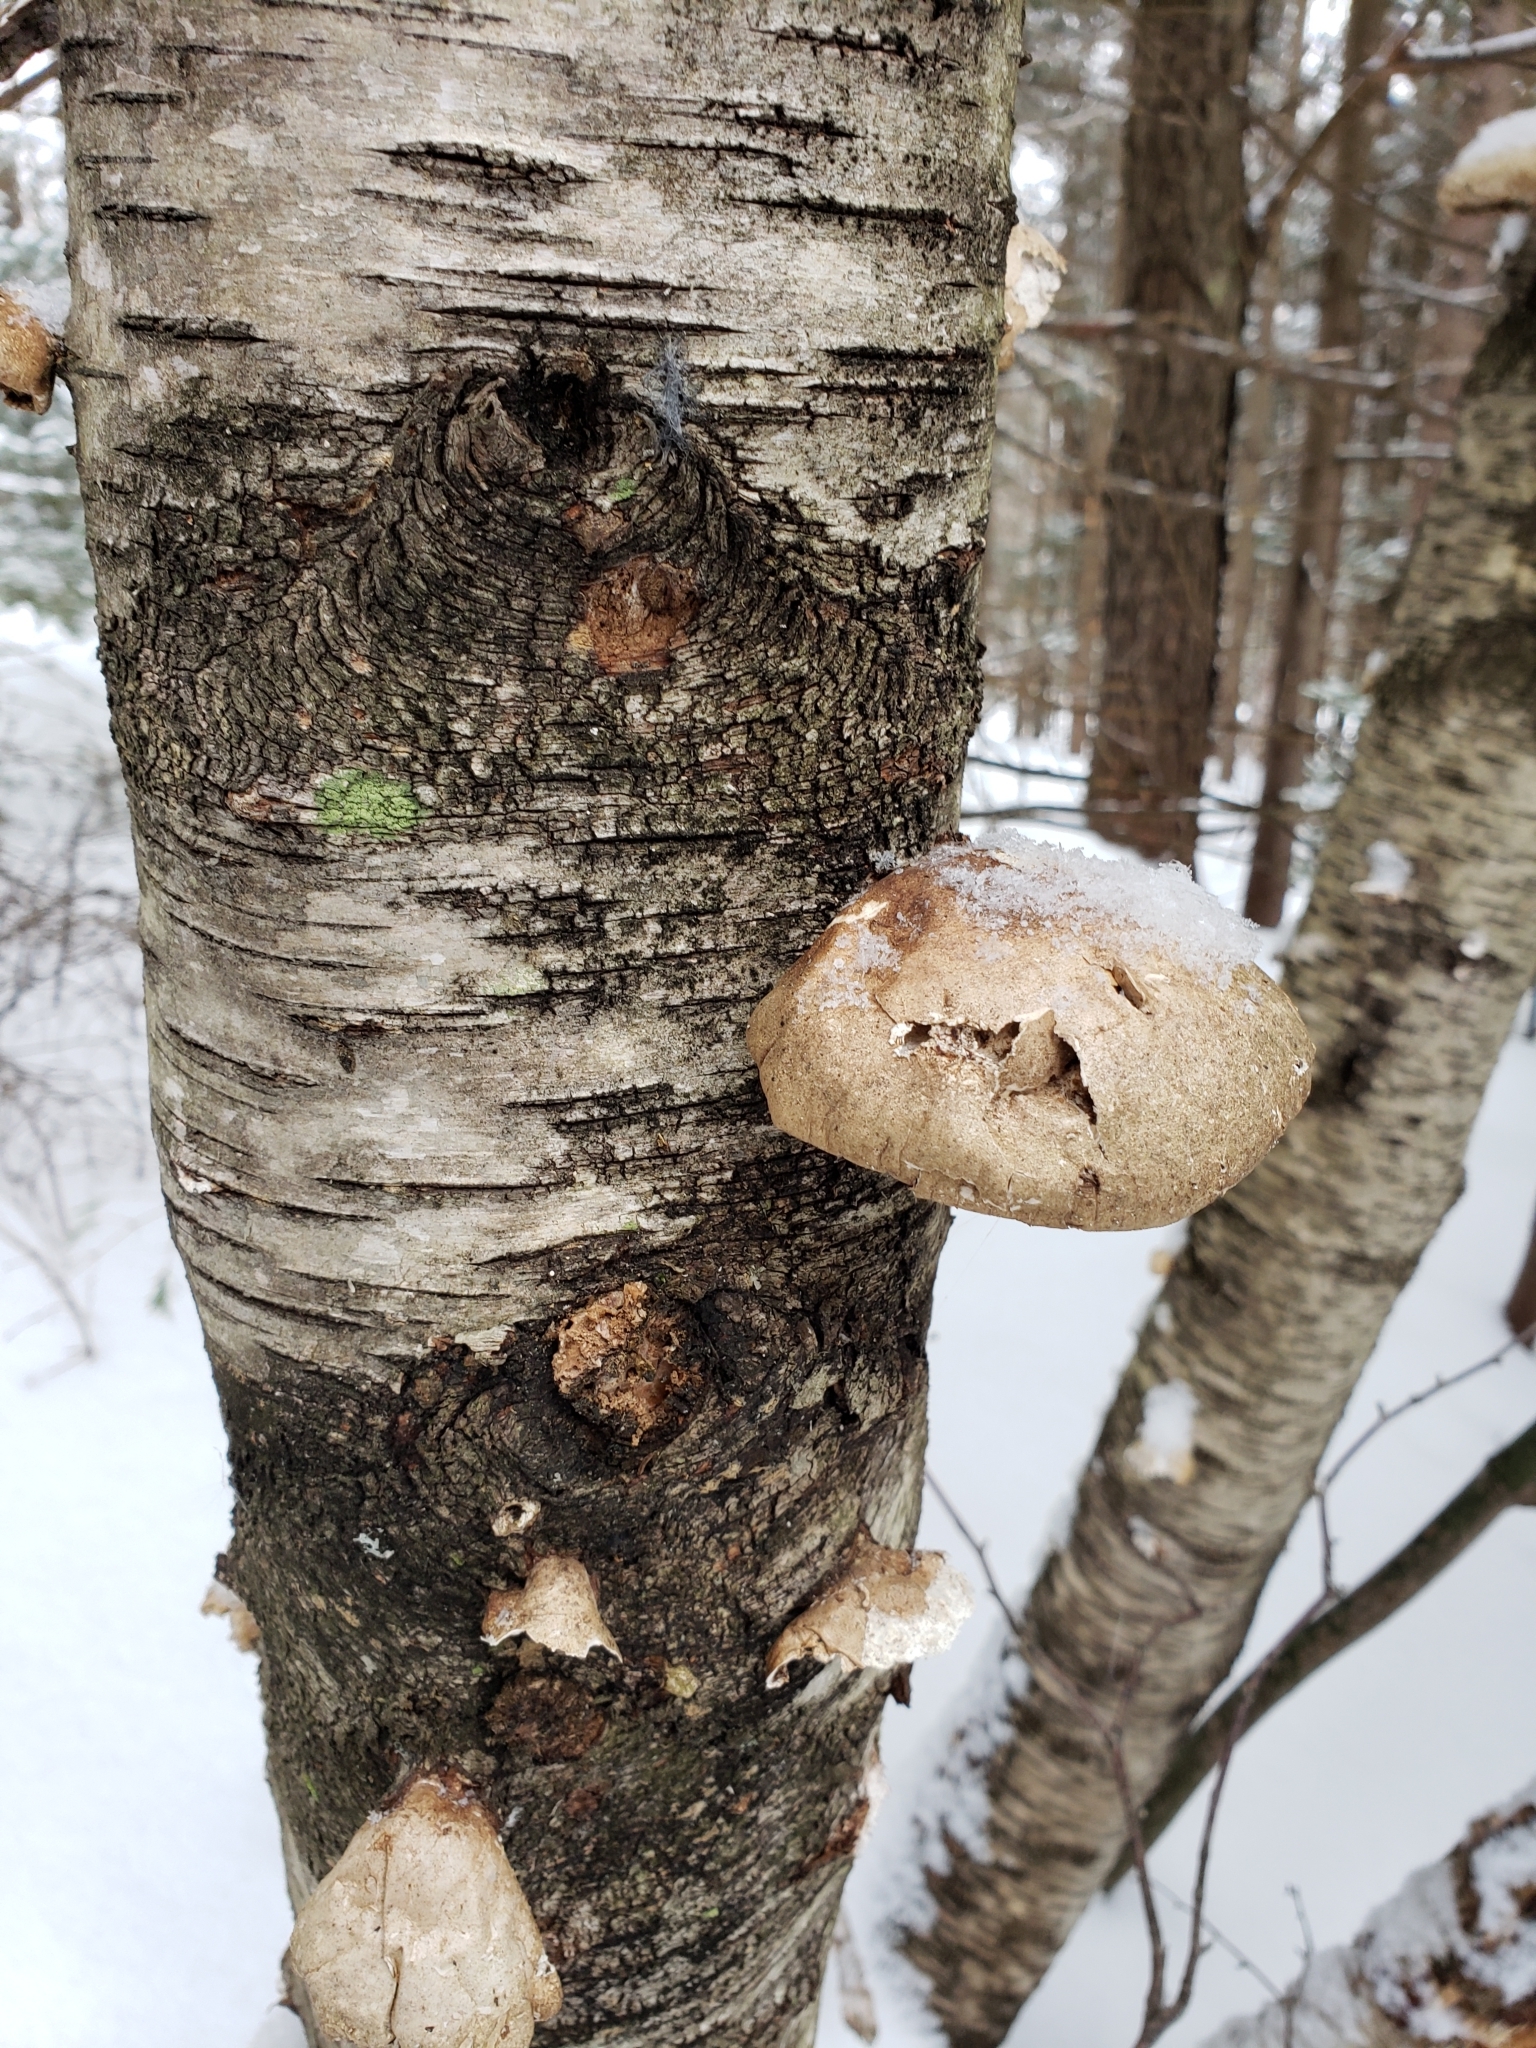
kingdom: Fungi
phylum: Basidiomycota
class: Agaricomycetes
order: Polyporales
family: Fomitopsidaceae
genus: Fomitopsis
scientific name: Fomitopsis betulina
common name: Birch polypore
